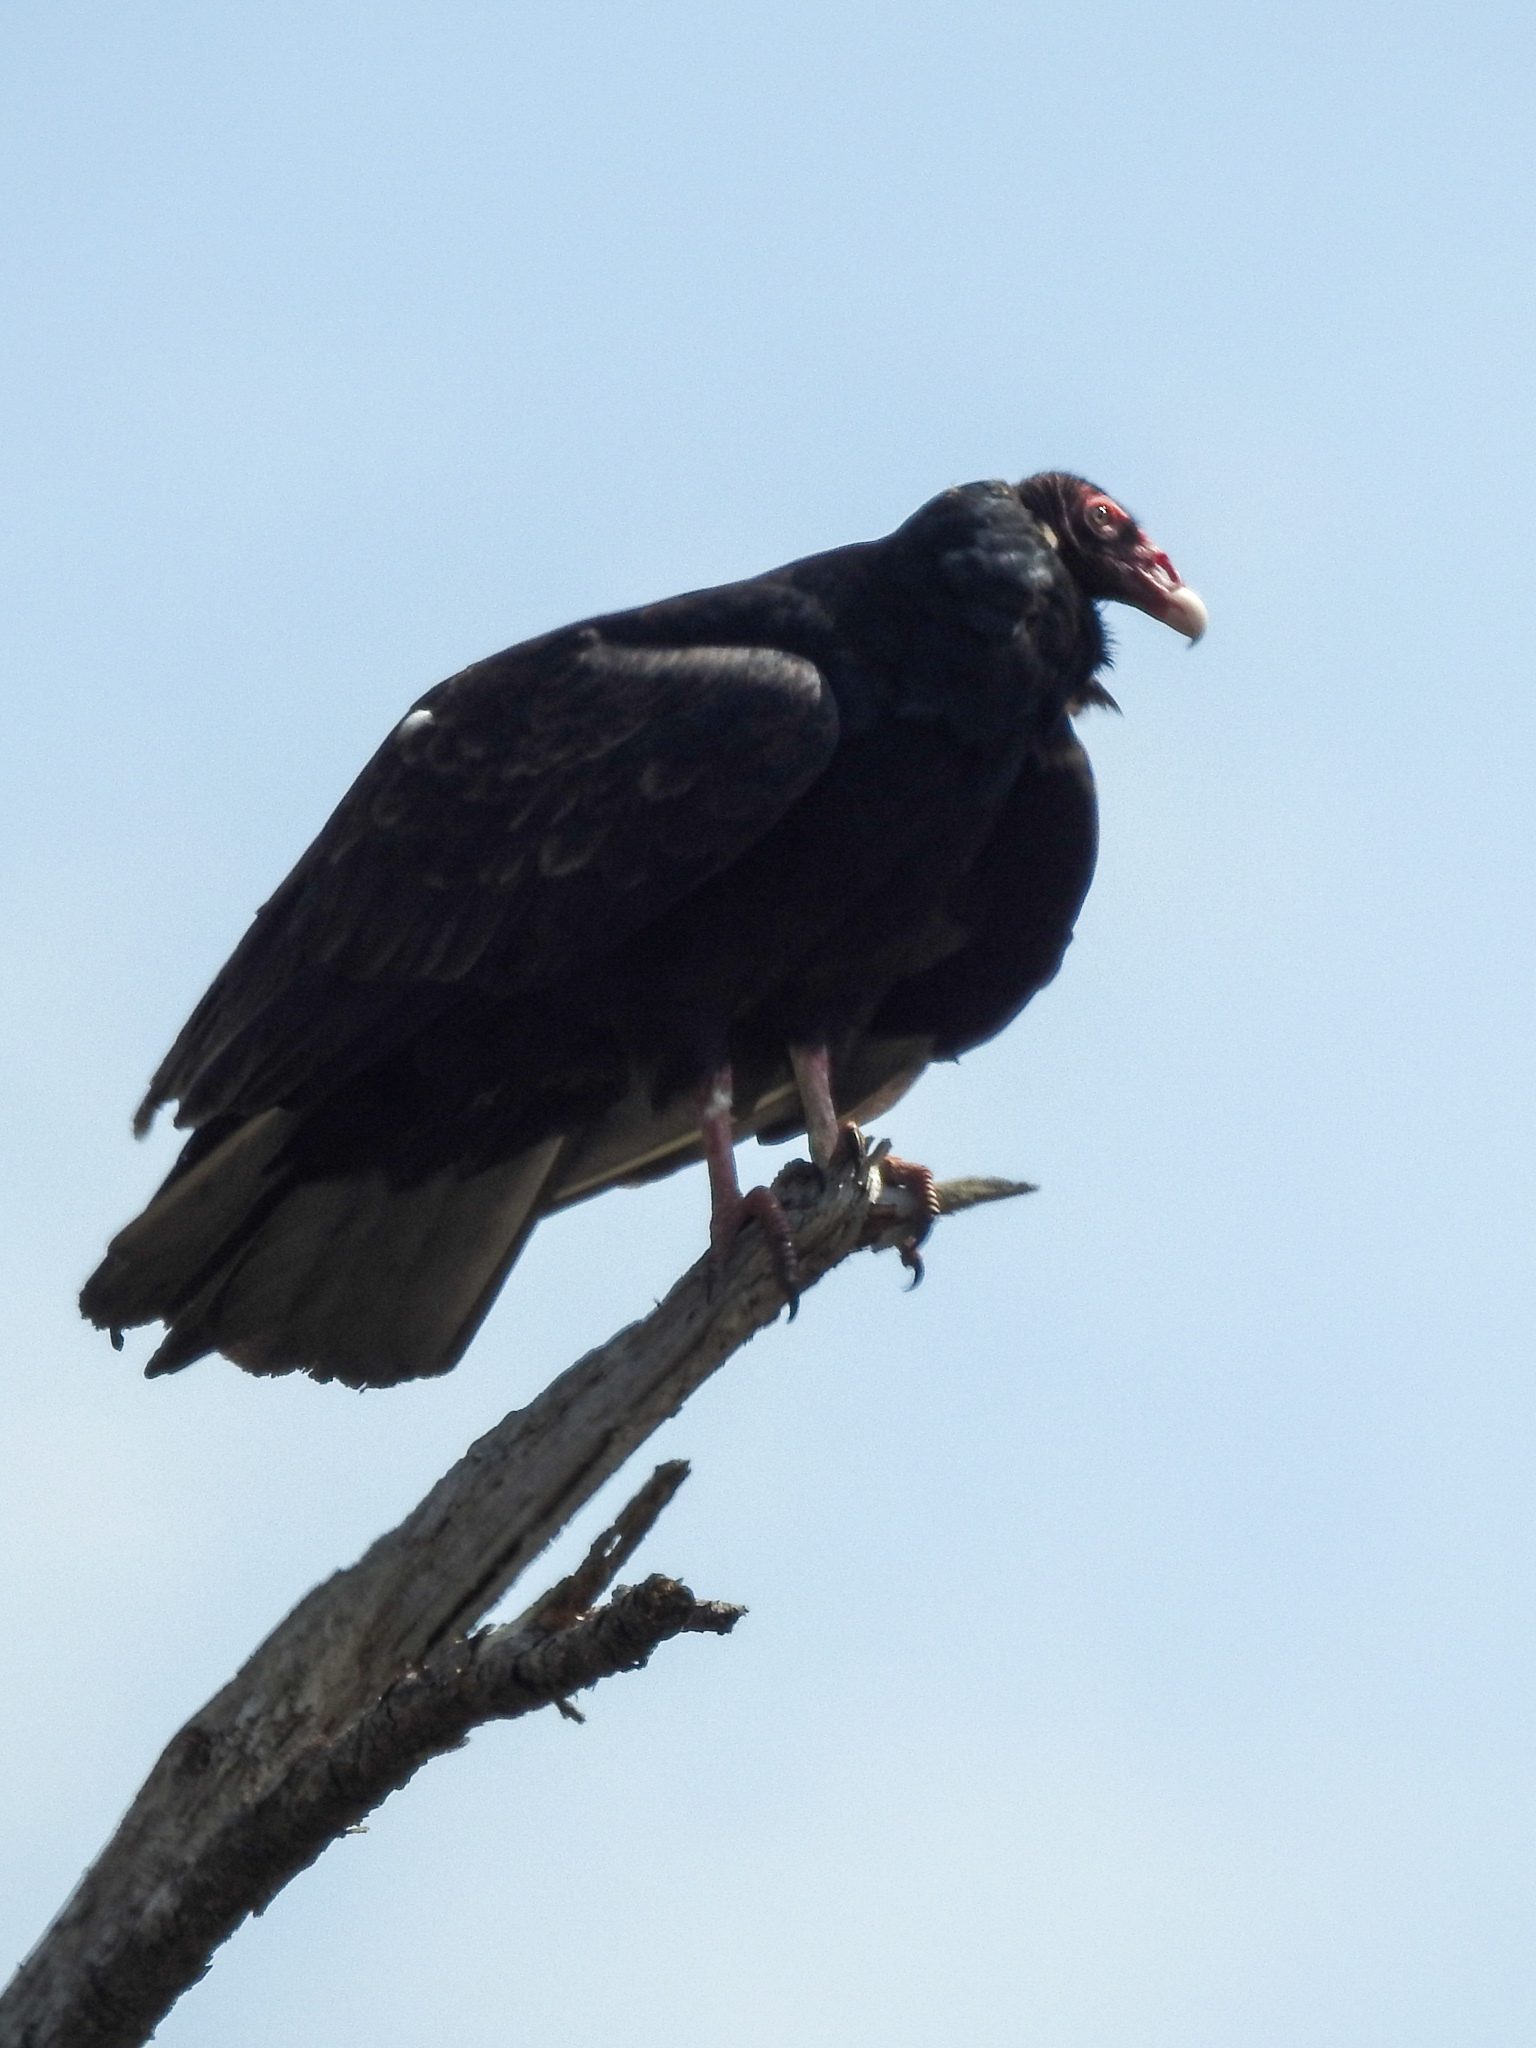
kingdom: Animalia
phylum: Chordata
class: Aves
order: Accipitriformes
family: Cathartidae
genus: Cathartes
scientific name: Cathartes aura
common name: Turkey vulture
